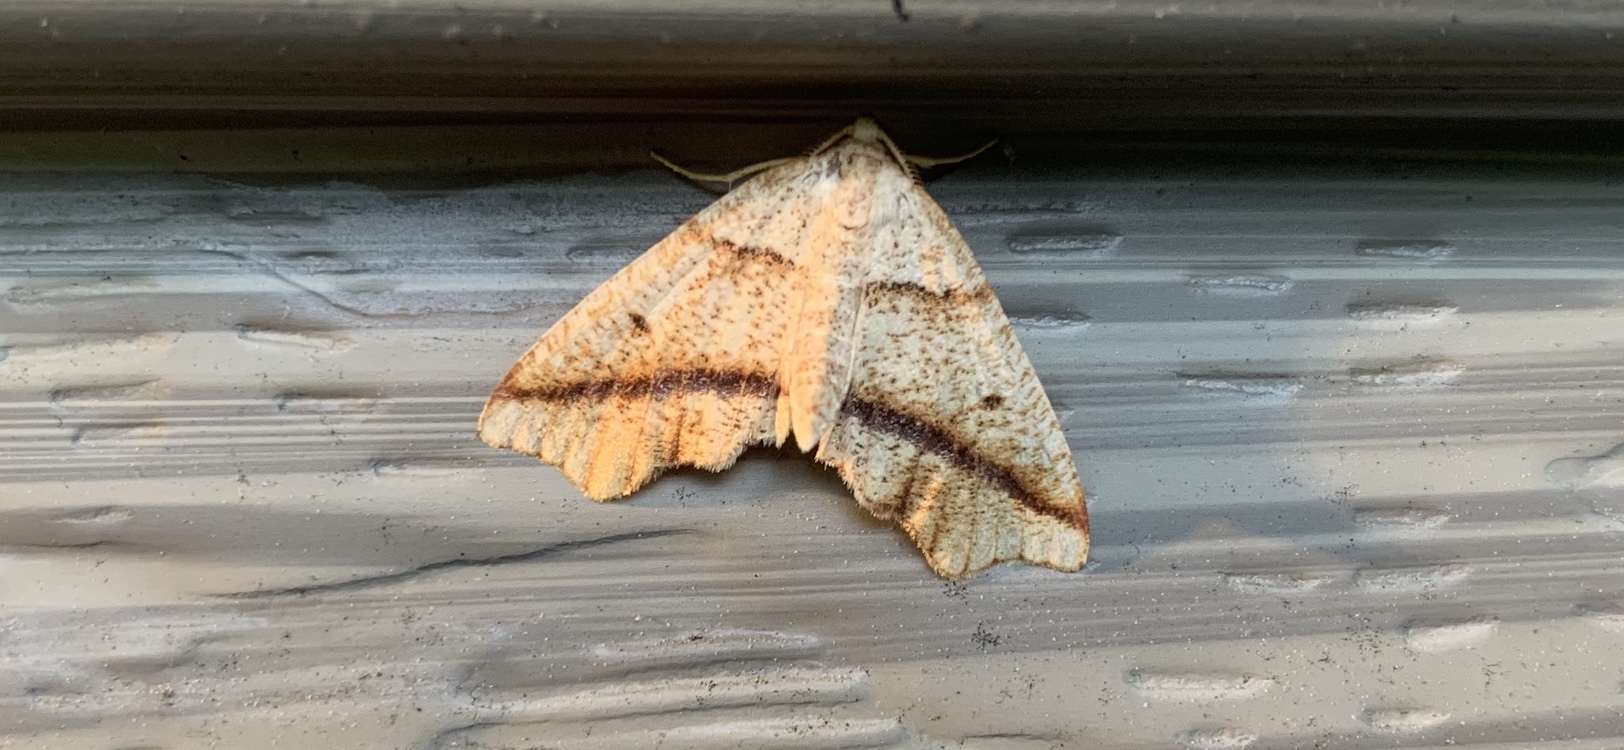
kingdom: Animalia
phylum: Arthropoda
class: Insecta
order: Lepidoptera
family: Geometridae
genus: Plagodis
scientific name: Plagodis alcoolaria
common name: Hollow-spotted plagodis
